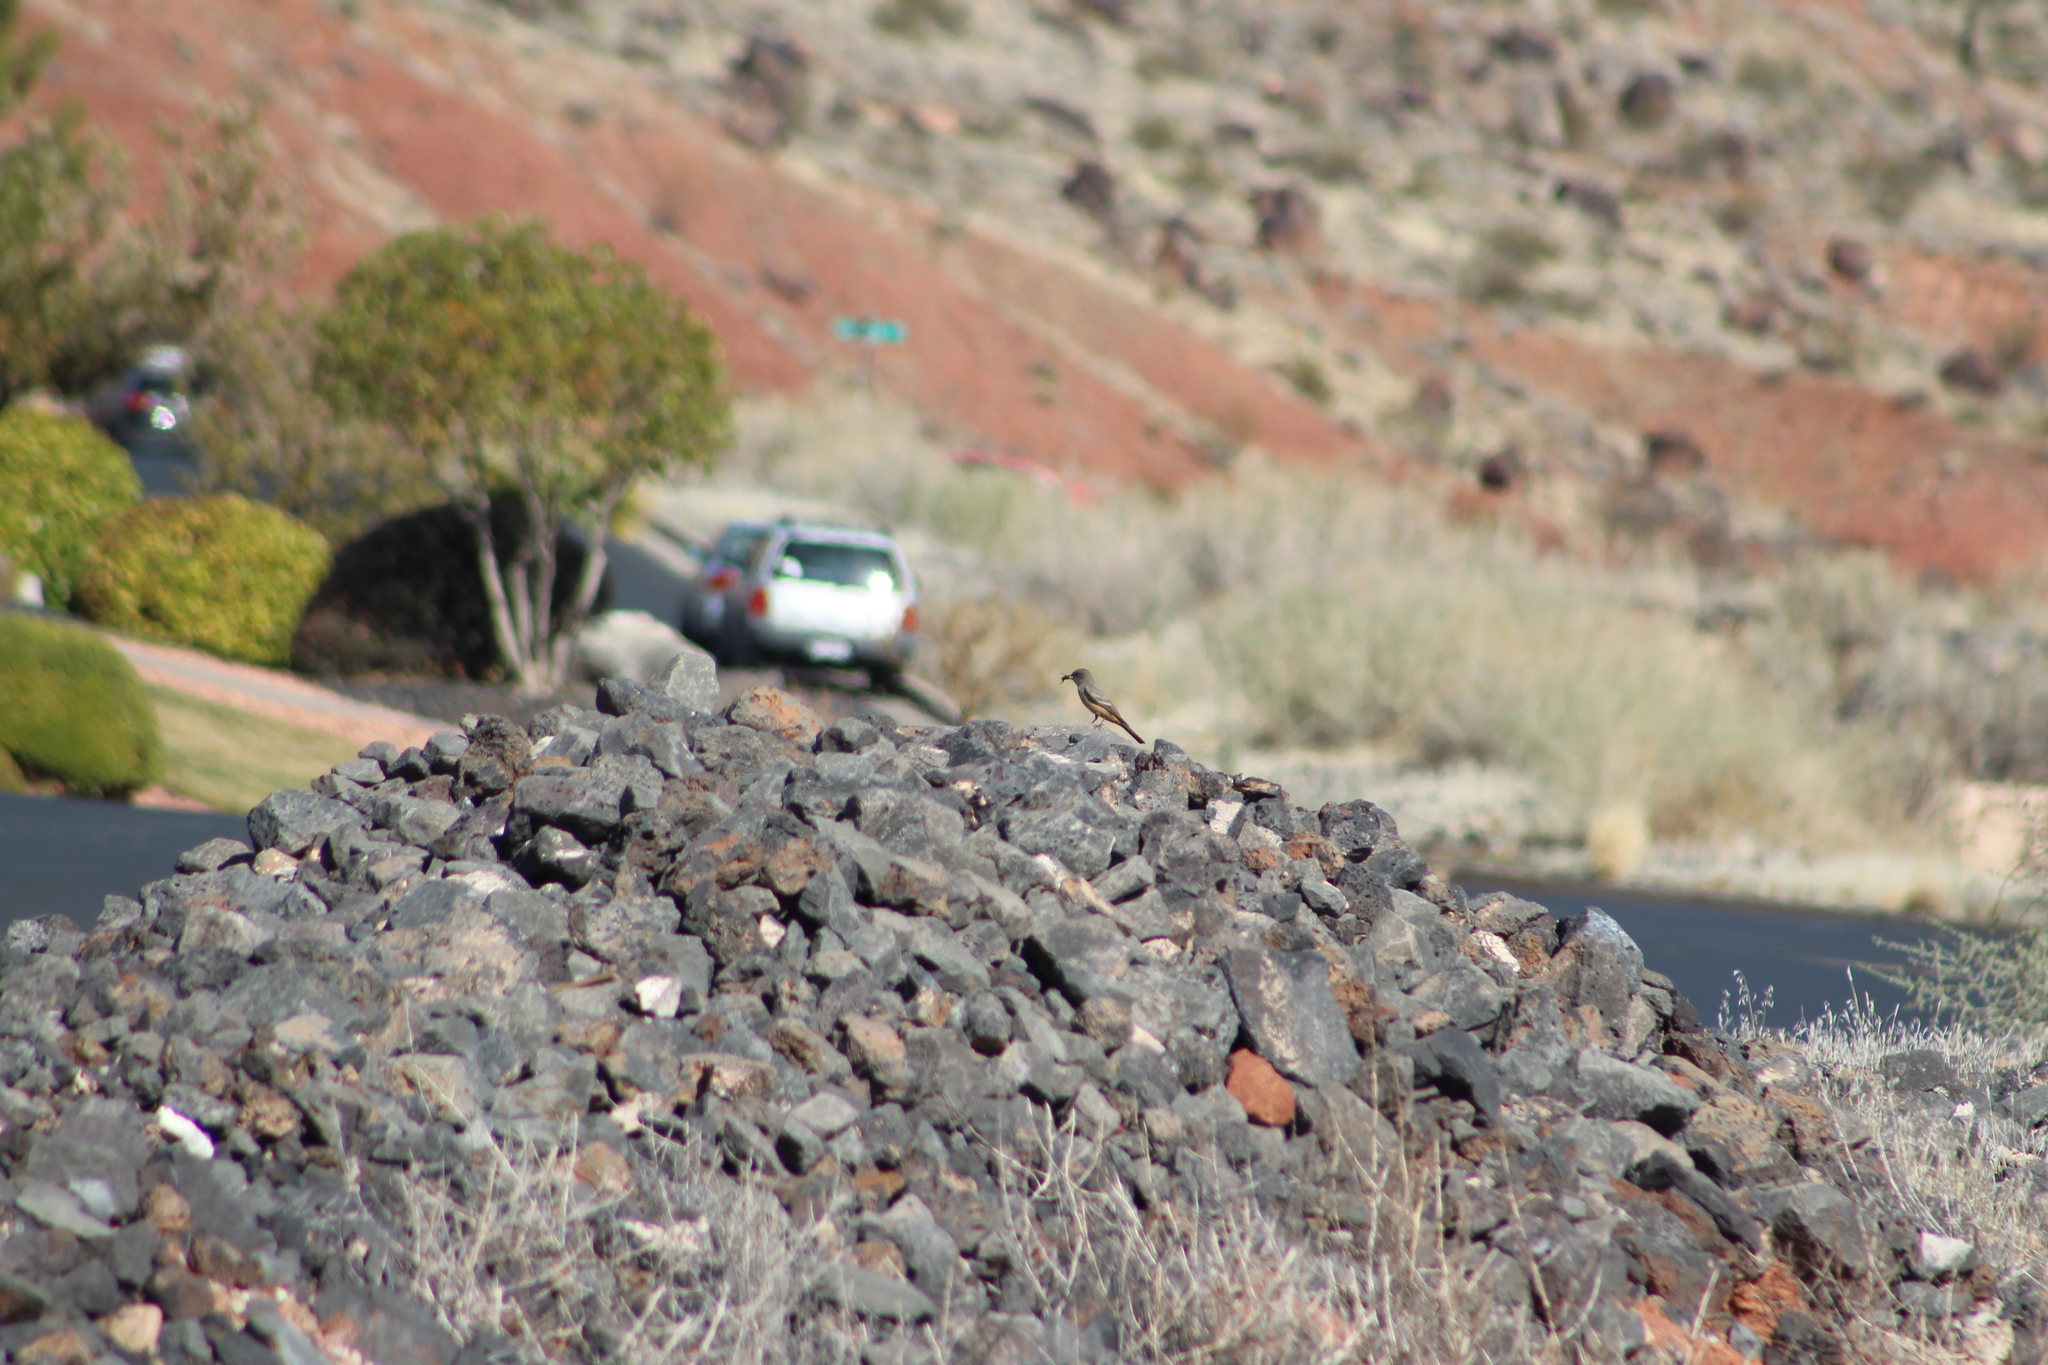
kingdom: Animalia
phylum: Chordata
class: Aves
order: Passeriformes
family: Tyrannidae
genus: Sayornis
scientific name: Sayornis saya
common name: Say's phoebe
